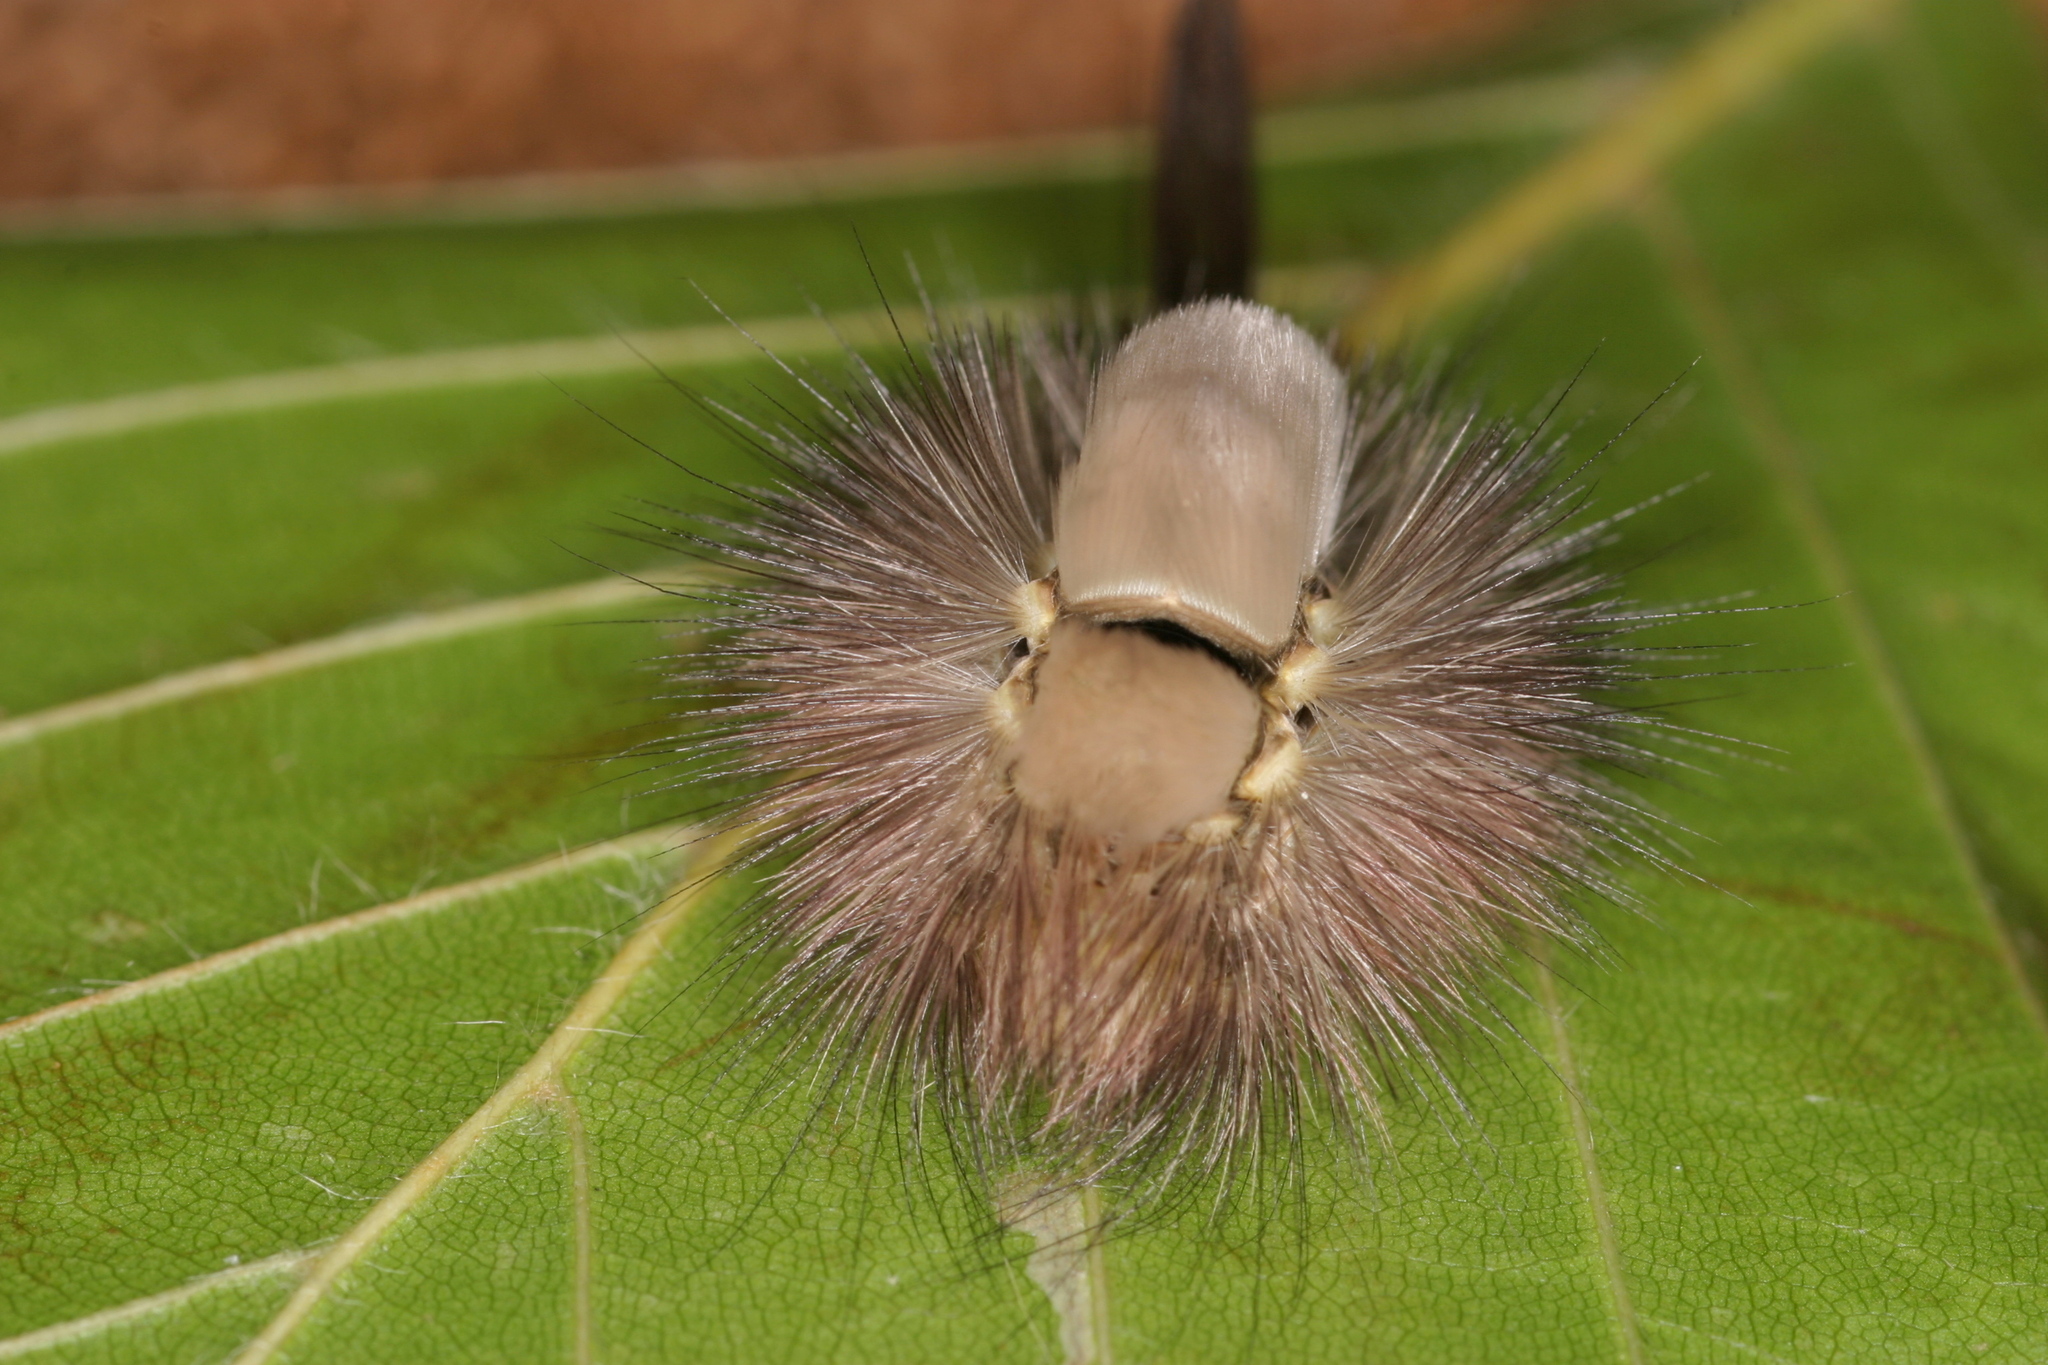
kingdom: Animalia
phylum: Arthropoda
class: Insecta
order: Lepidoptera
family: Erebidae
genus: Calliteara
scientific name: Calliteara pudibunda
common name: Pale tussock
